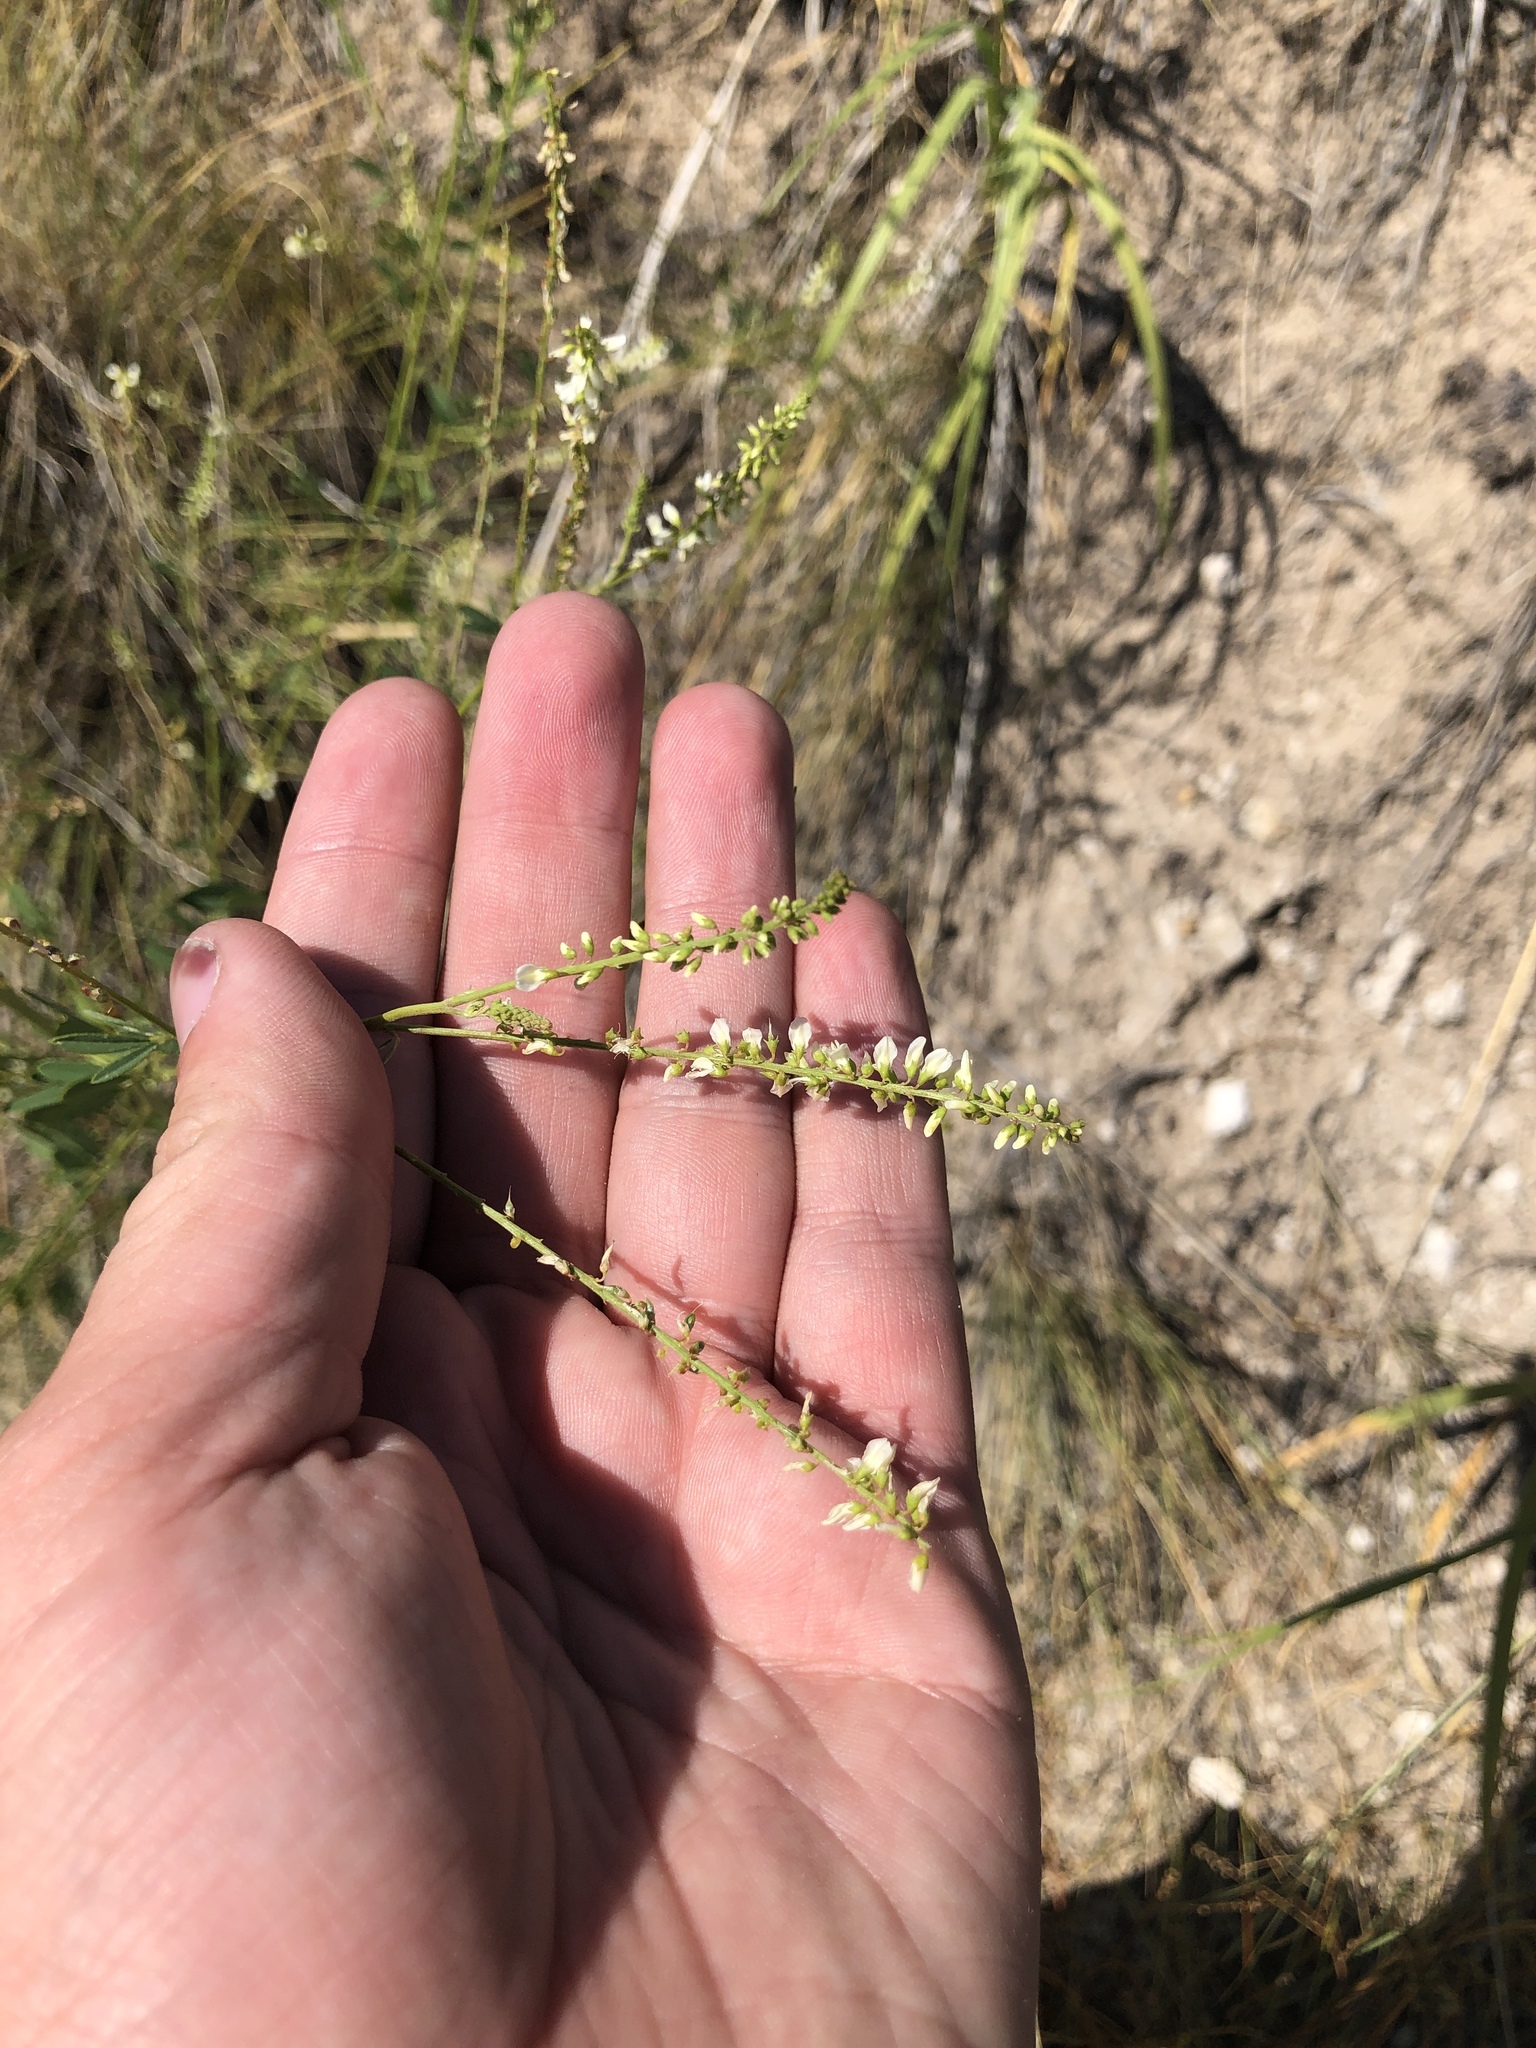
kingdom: Plantae
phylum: Tracheophyta
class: Magnoliopsida
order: Fabales
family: Fabaceae
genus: Melilotus
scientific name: Melilotus albus
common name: White melilot
